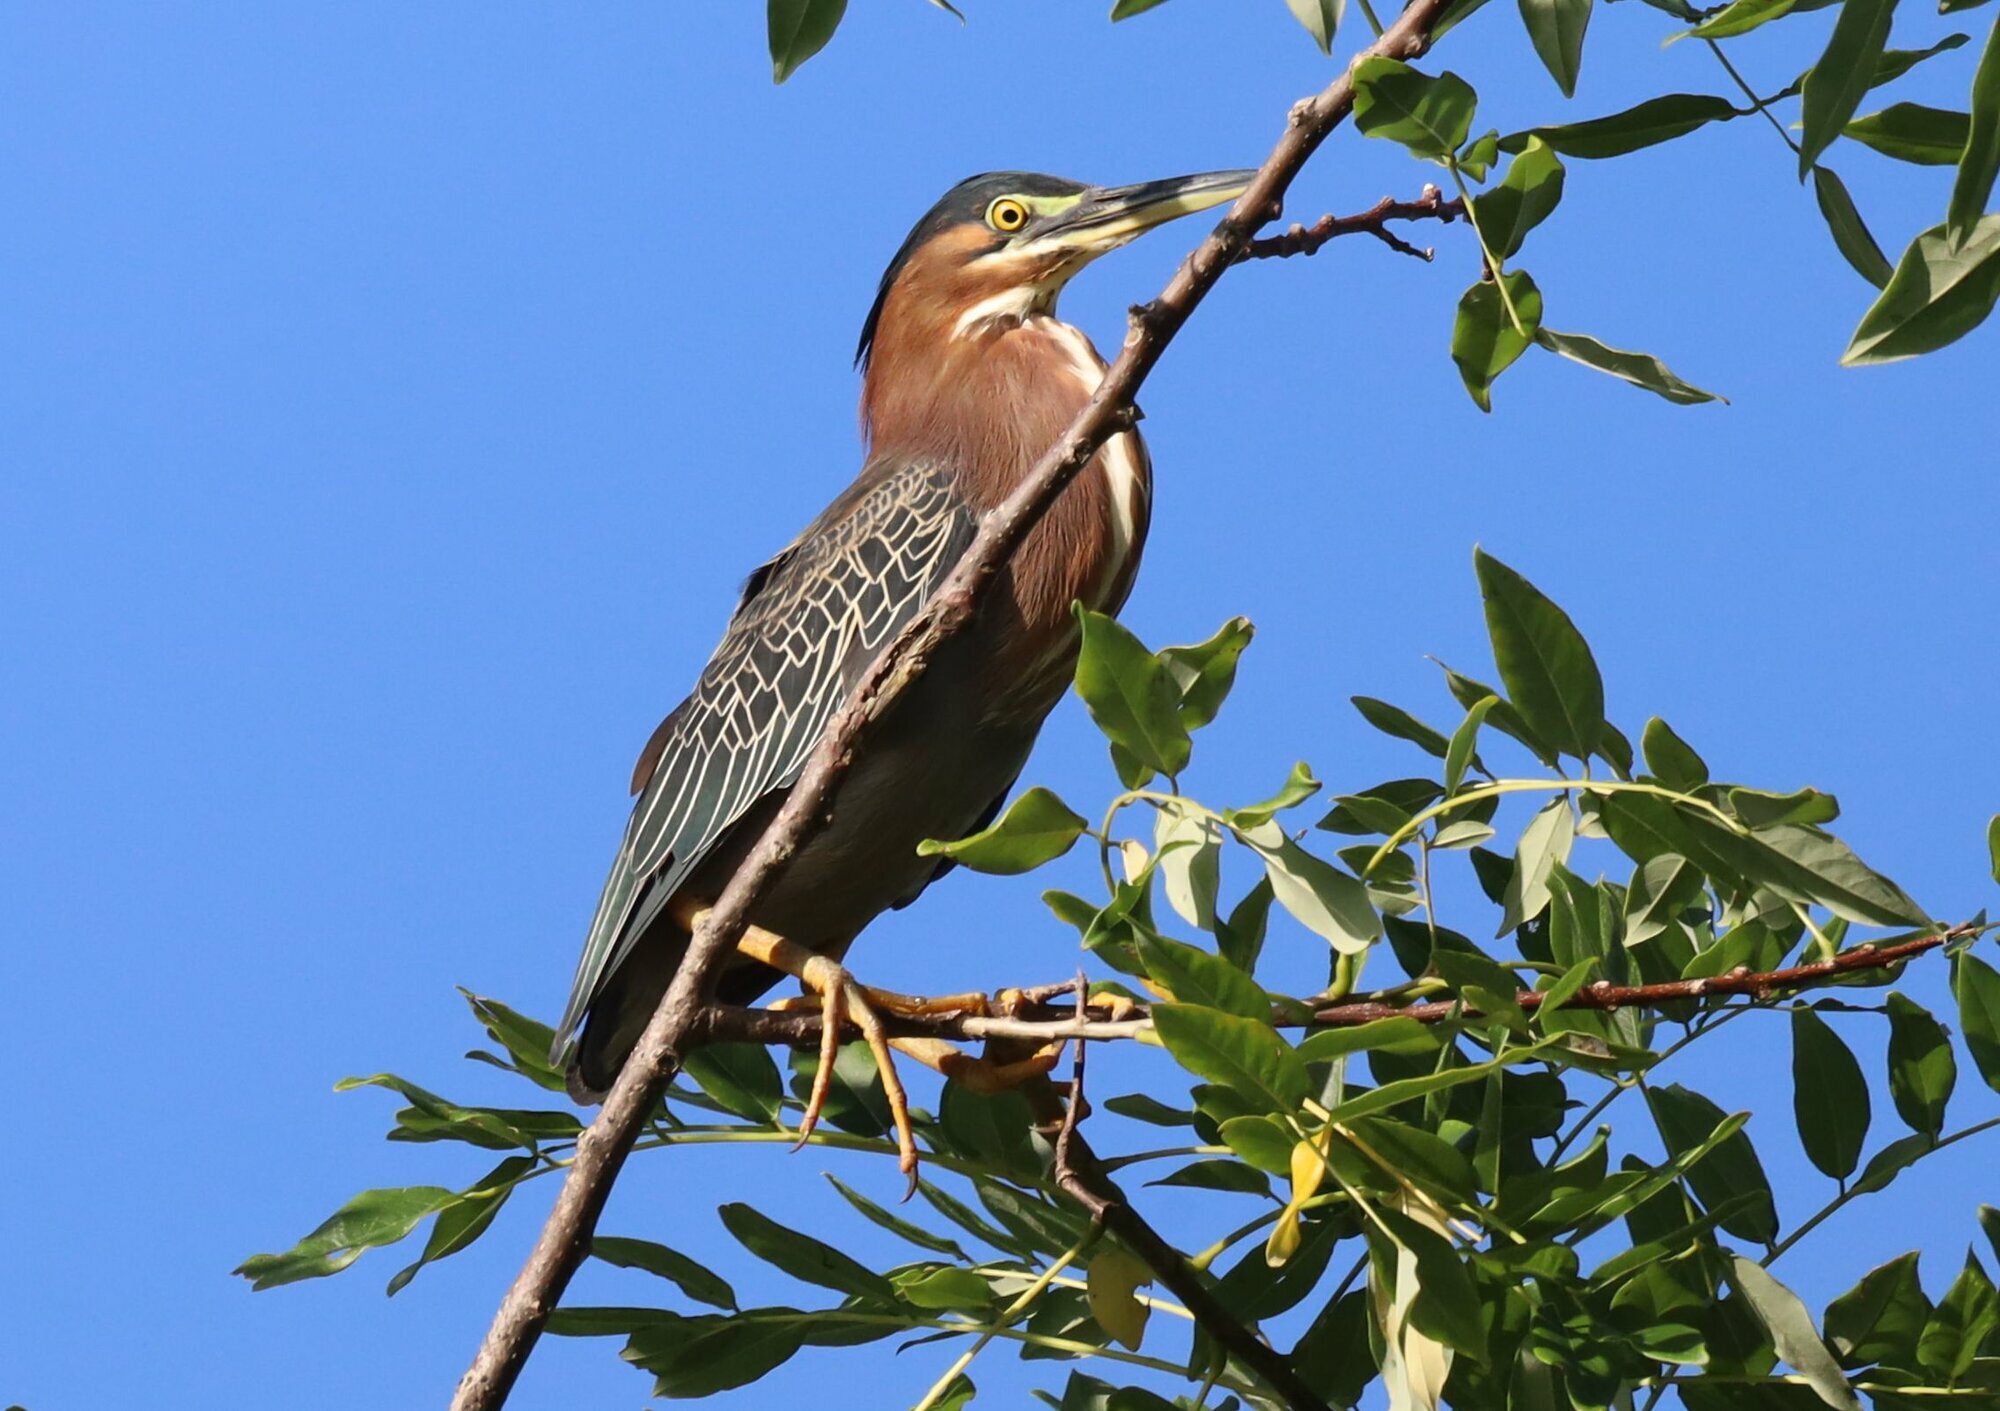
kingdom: Animalia
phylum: Chordata
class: Aves
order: Pelecaniformes
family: Ardeidae
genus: Butorides
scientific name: Butorides virescens
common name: Green heron
